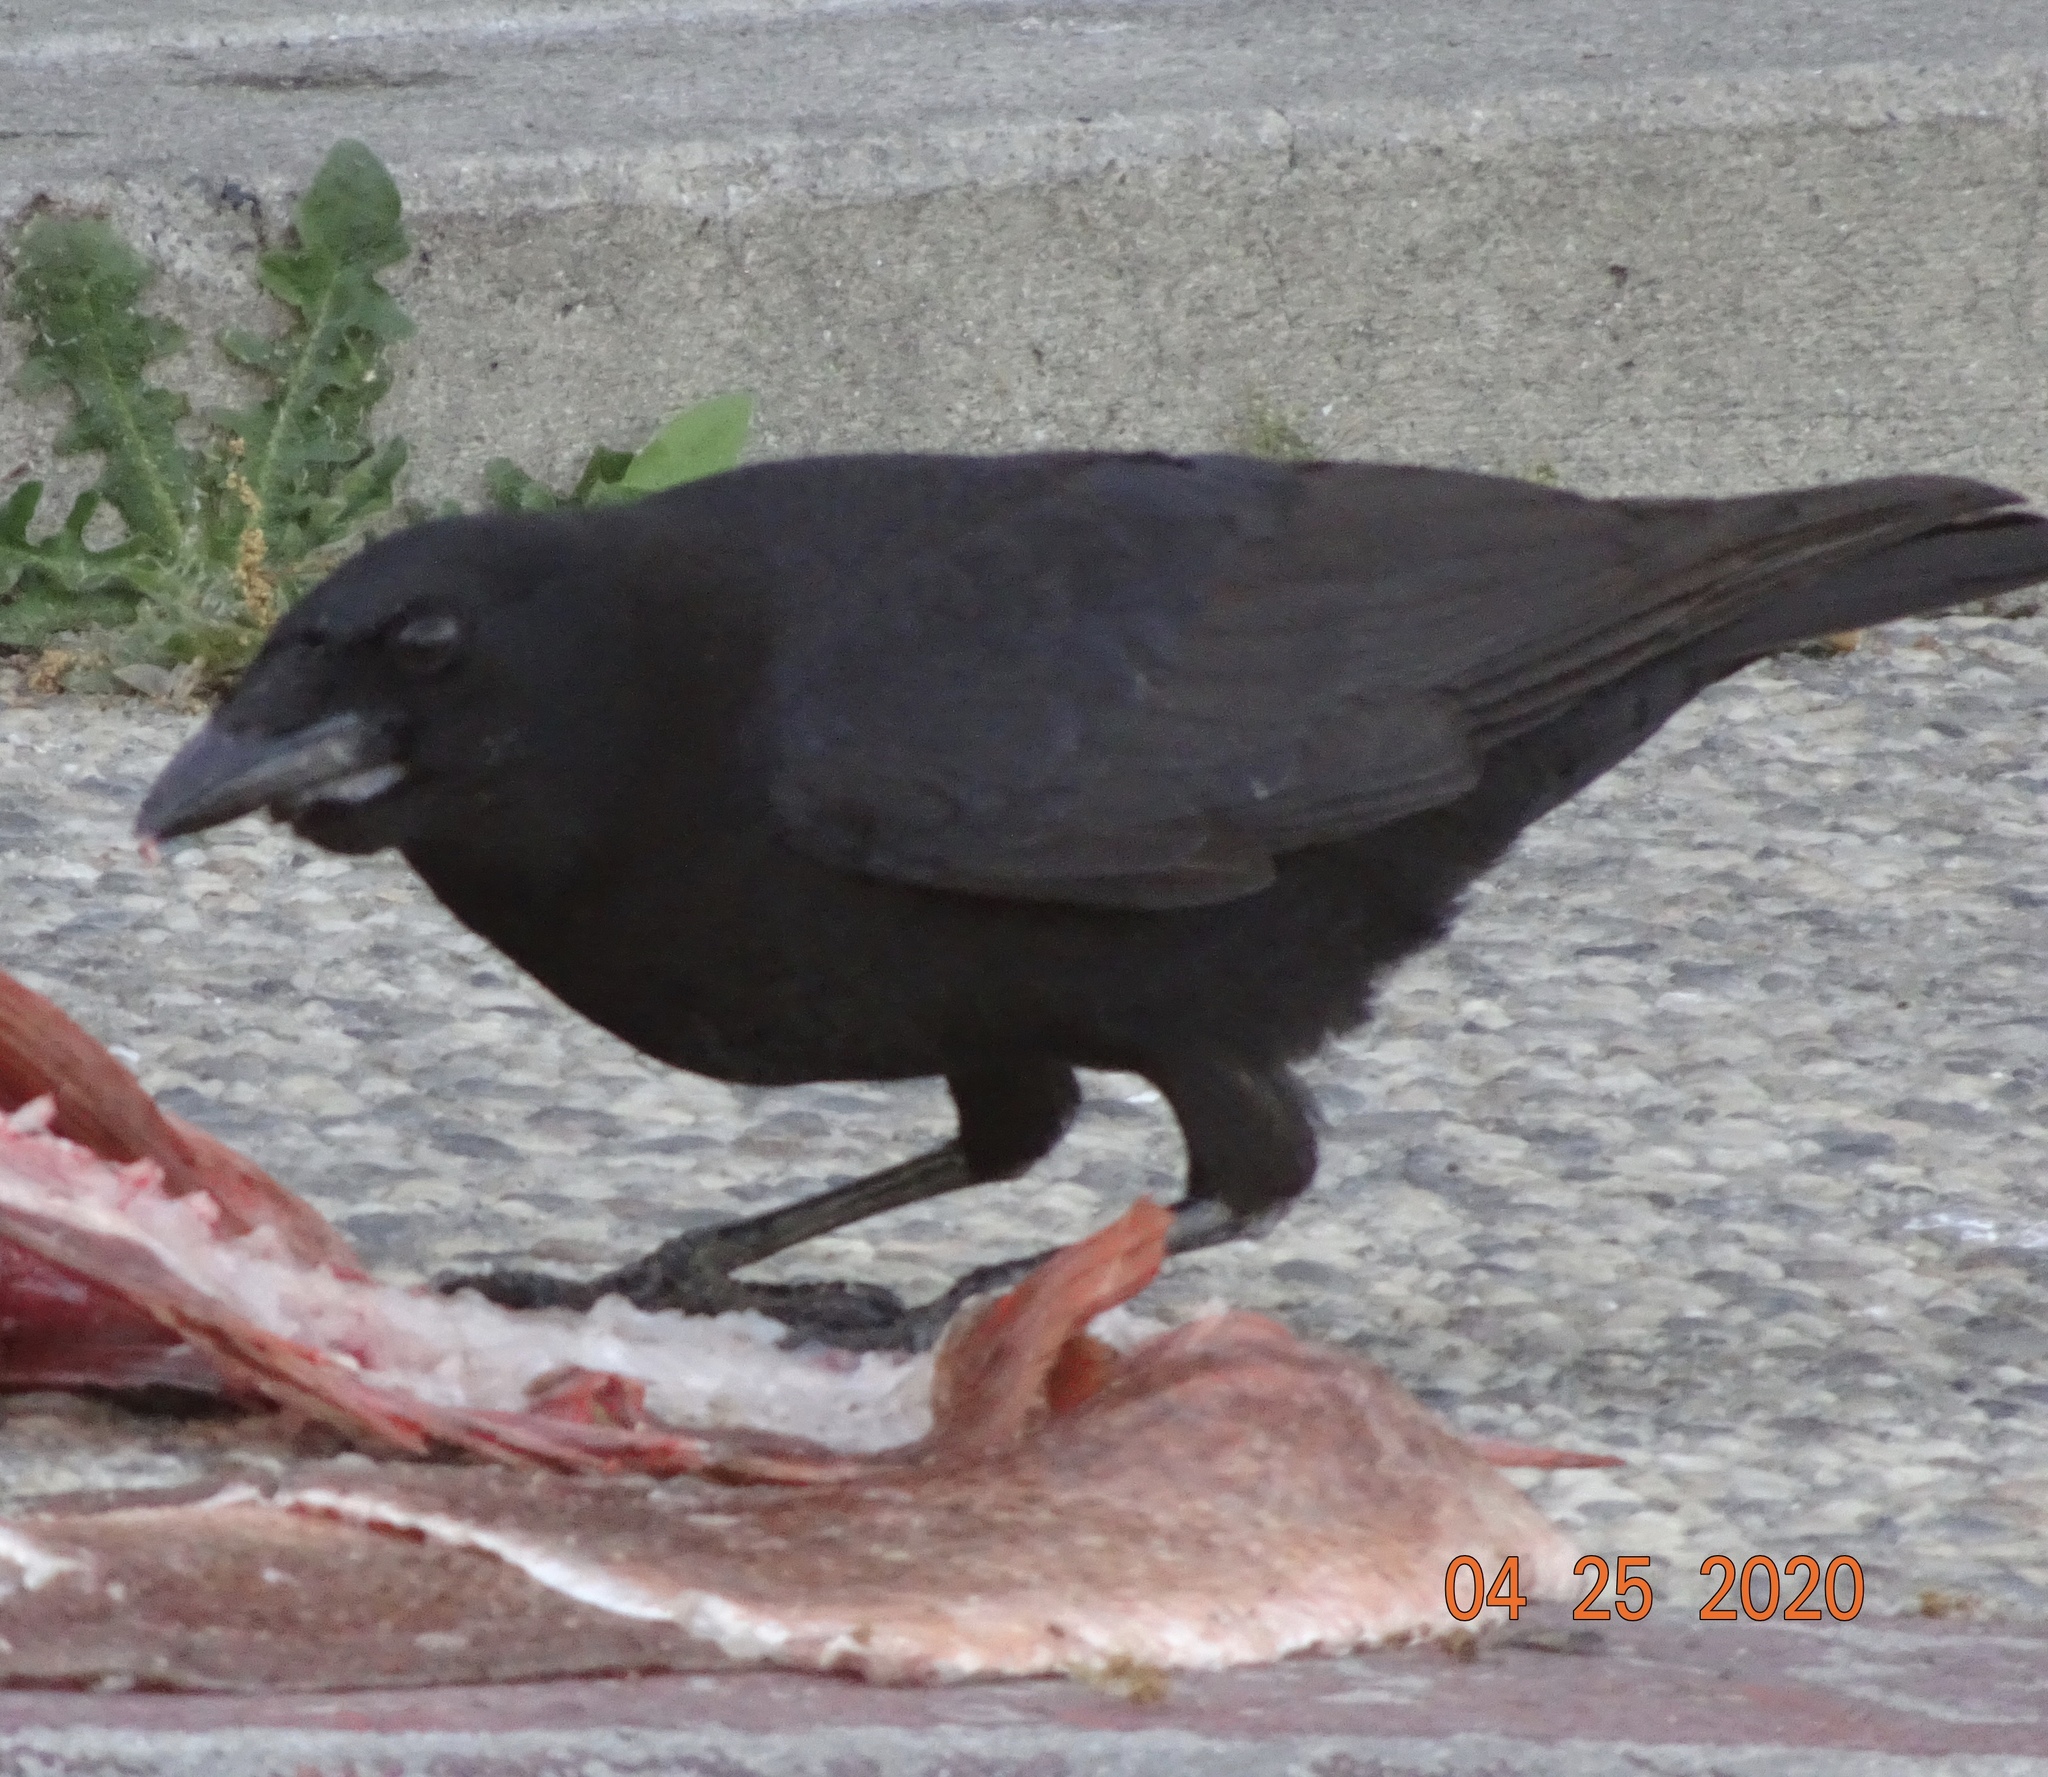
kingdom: Animalia
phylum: Chordata
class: Aves
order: Passeriformes
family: Corvidae
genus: Corvus
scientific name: Corvus brachyrhynchos
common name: American crow
